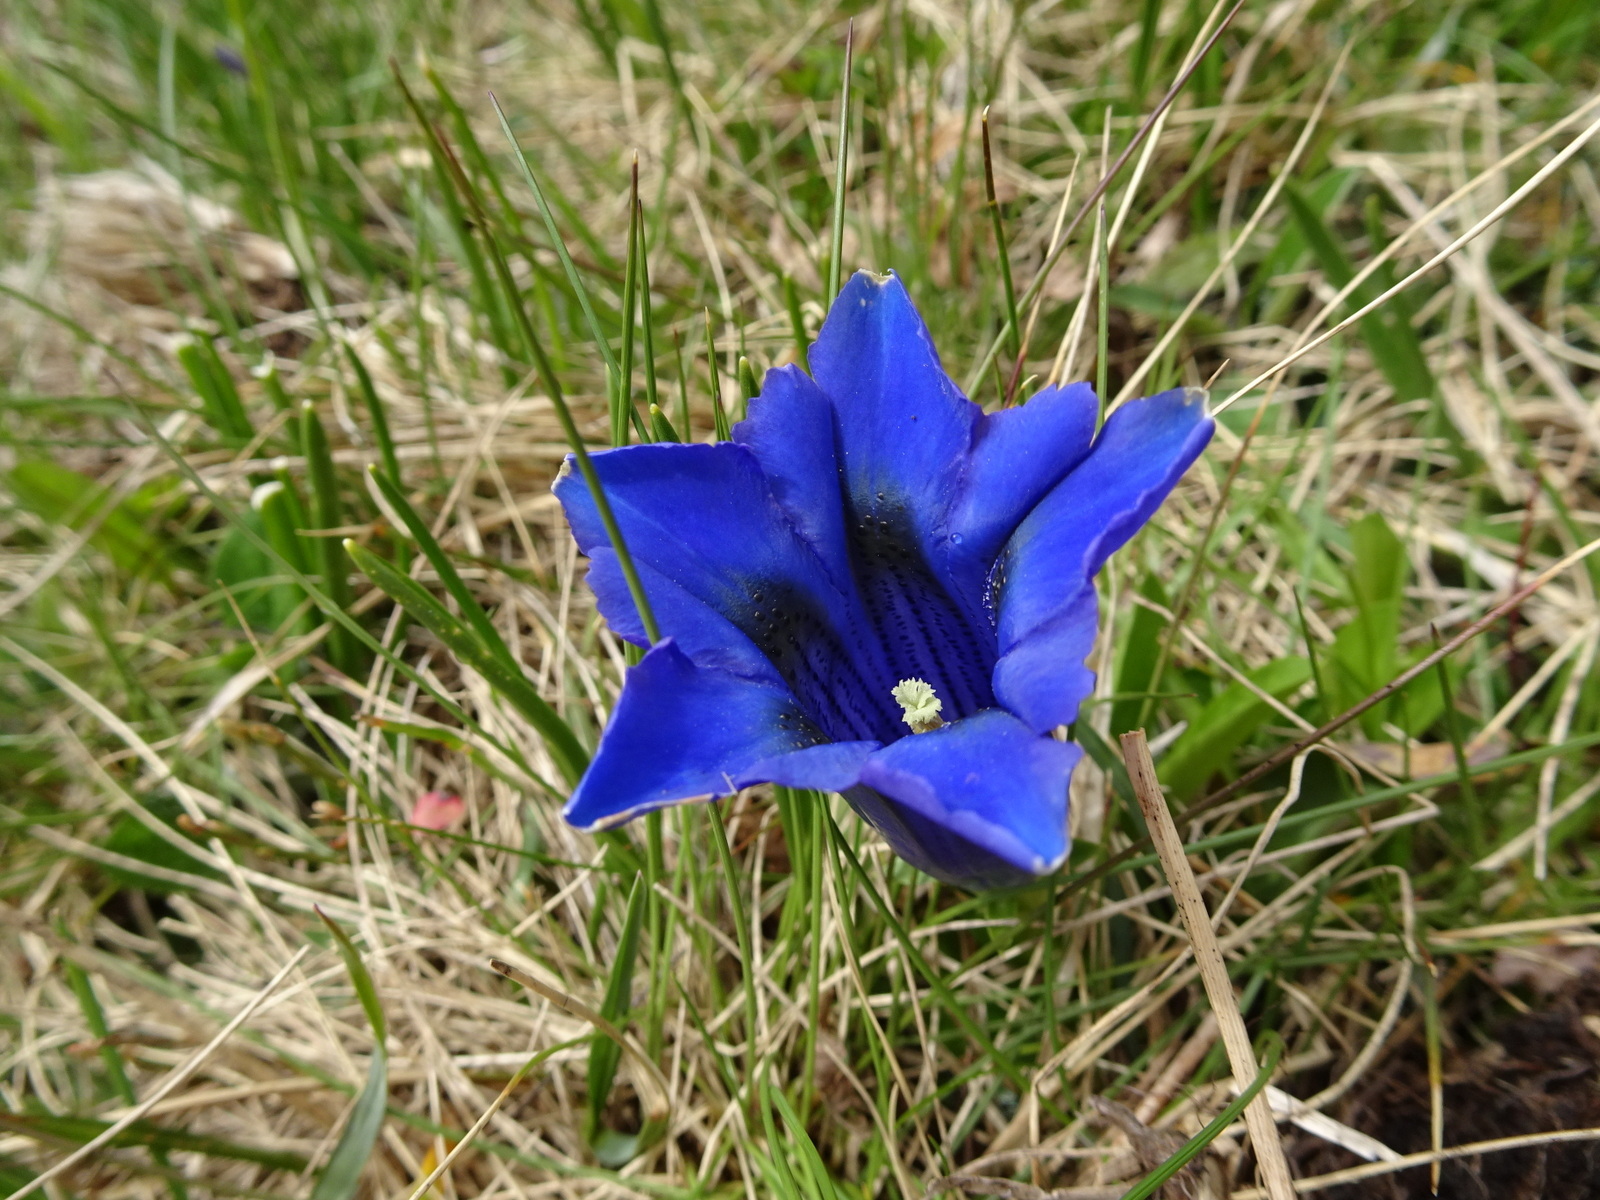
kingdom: Plantae
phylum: Tracheophyta
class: Magnoliopsida
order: Gentianales
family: Gentianaceae
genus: Gentiana
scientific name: Gentiana acaulis
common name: Trumpet gentian
